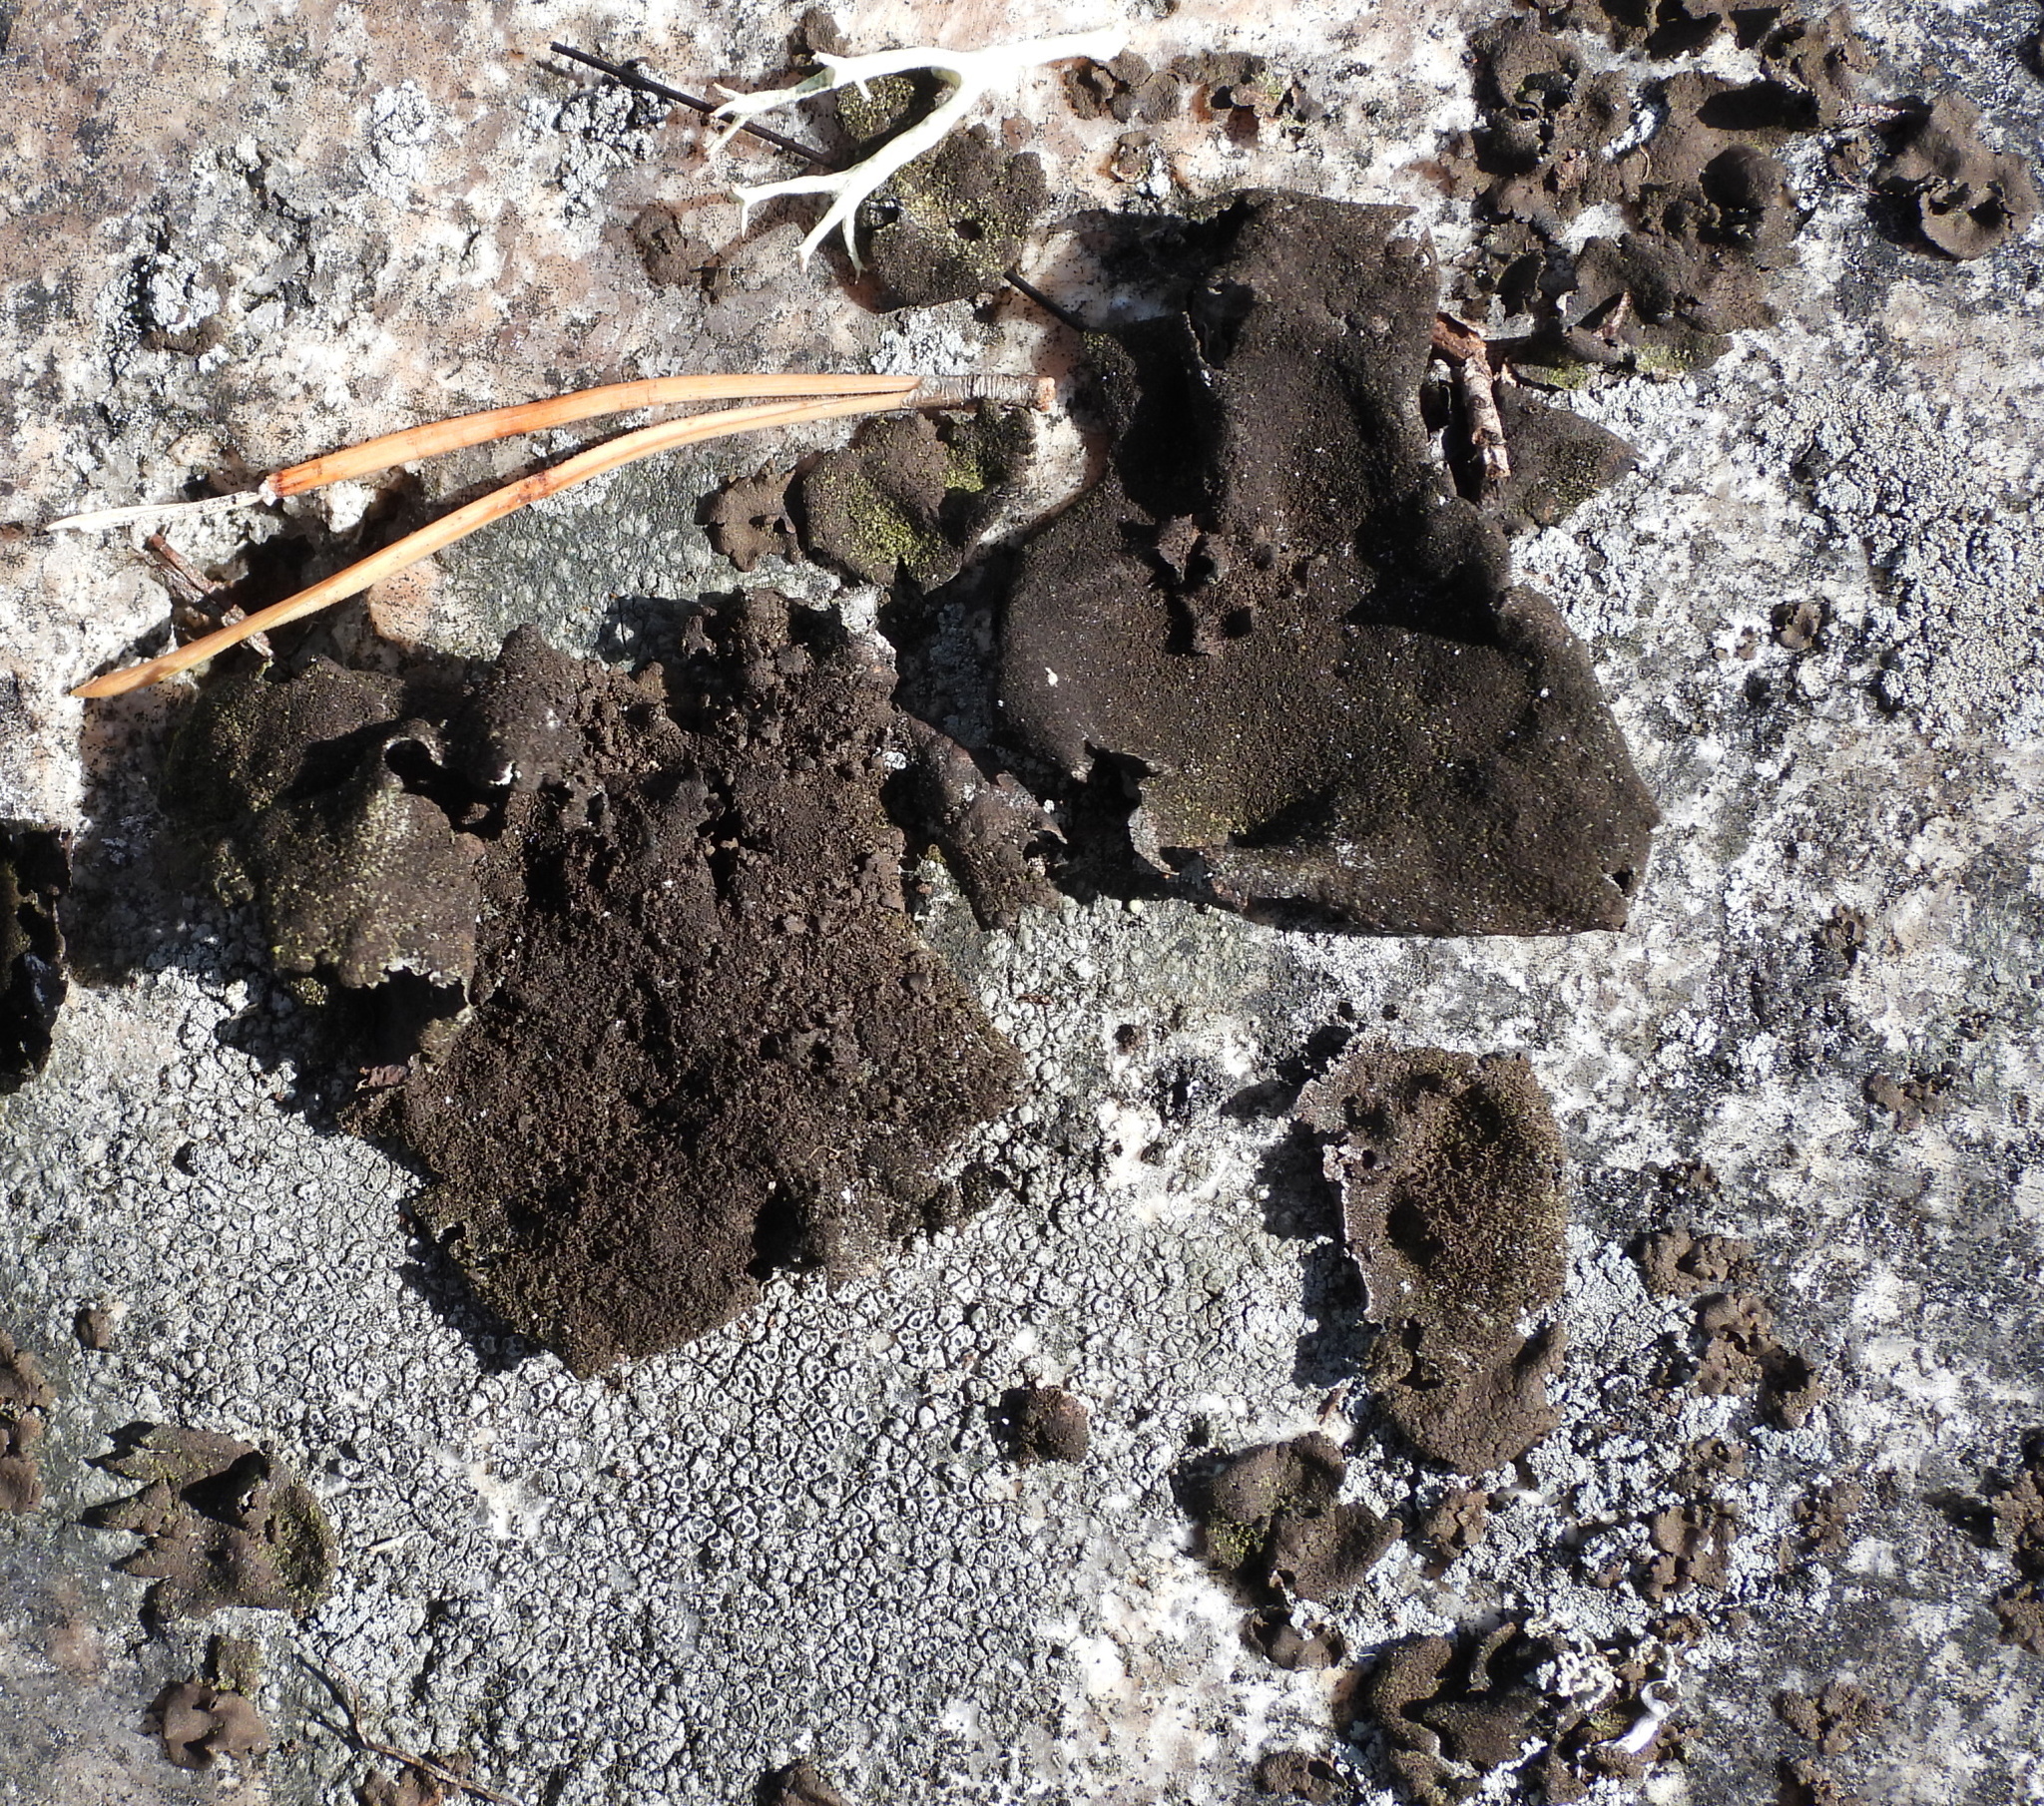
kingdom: Fungi
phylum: Ascomycota
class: Lecanoromycetes
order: Umbilicariales
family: Umbilicariaceae
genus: Umbilicaria
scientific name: Umbilicaria deusta
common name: Peppered rock tripe
